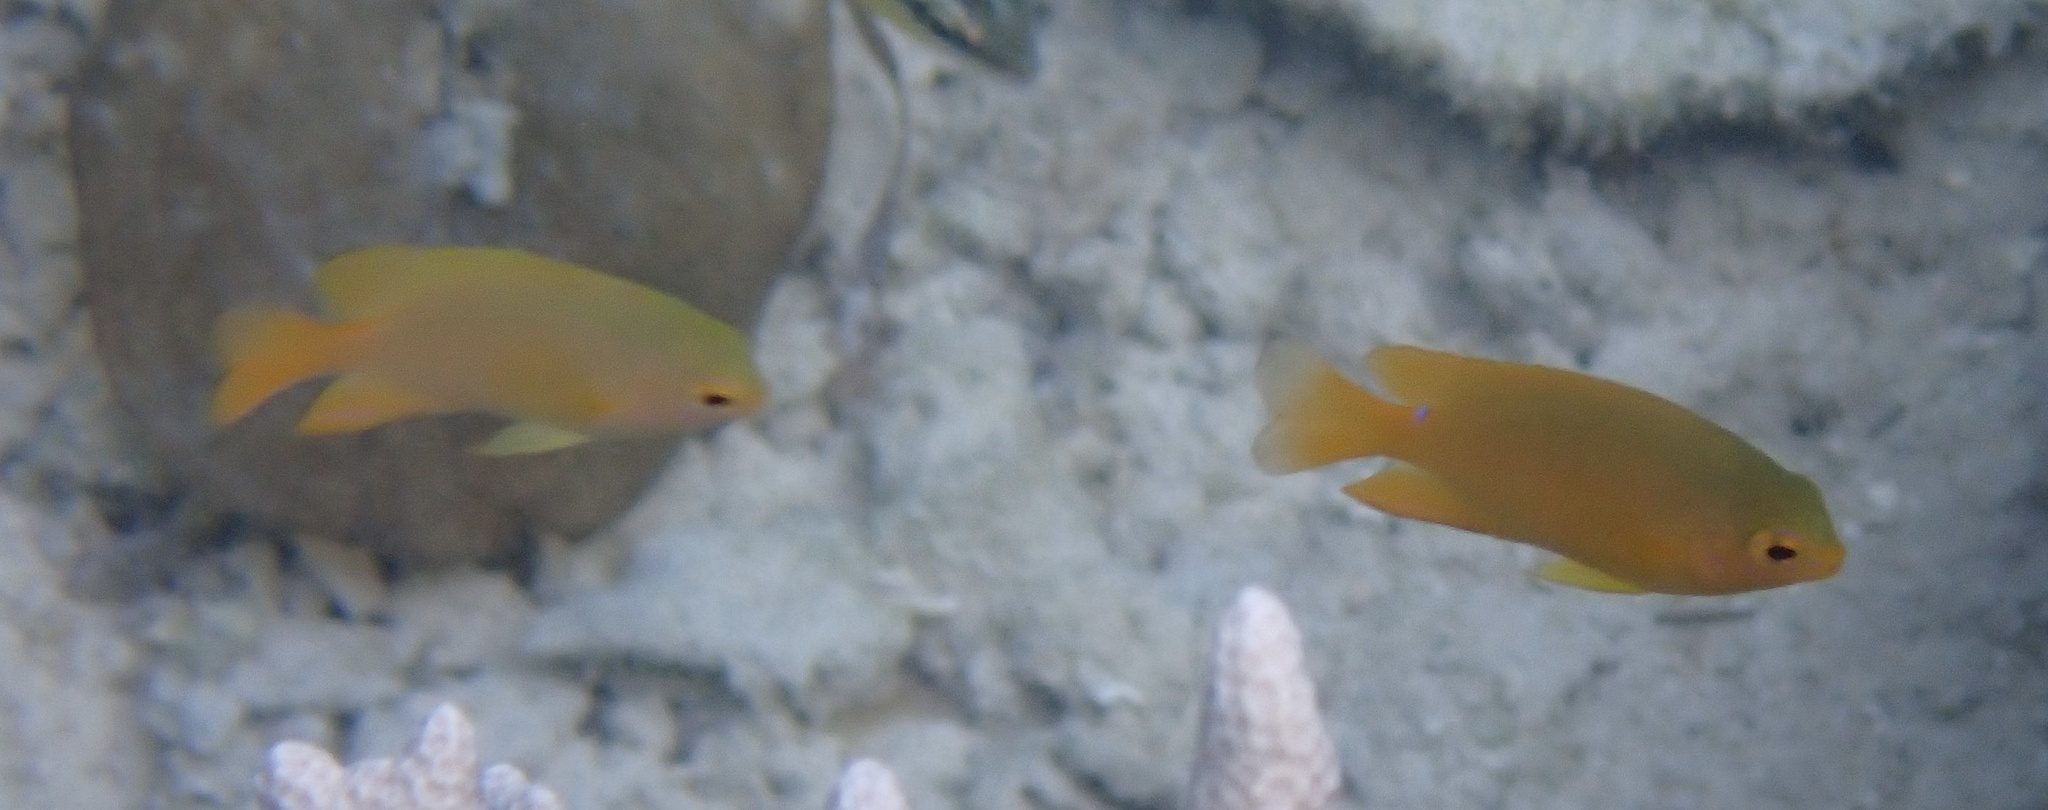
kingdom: Animalia
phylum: Chordata
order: Perciformes
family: Pomacentridae
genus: Pomacentrus
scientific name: Pomacentrus moluccensis
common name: Lemon damsel
